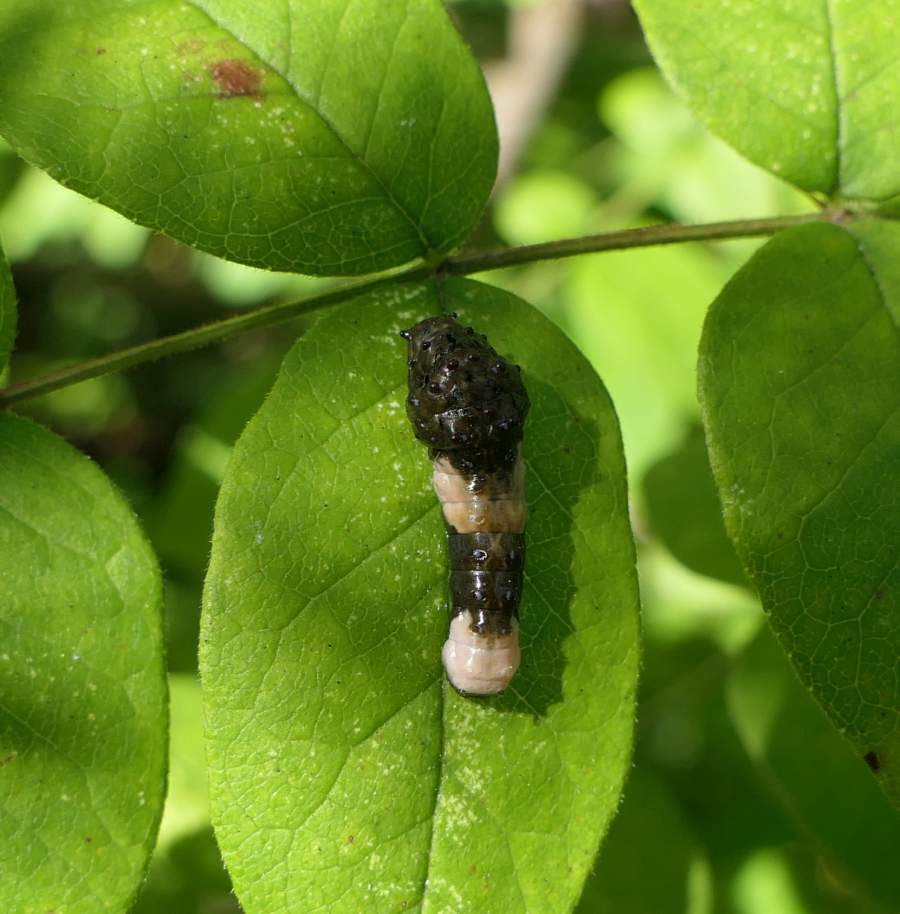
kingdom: Animalia
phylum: Arthropoda
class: Insecta
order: Lepidoptera
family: Papilionidae
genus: Papilio
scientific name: Papilio cresphontes
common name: Giant swallowtail
